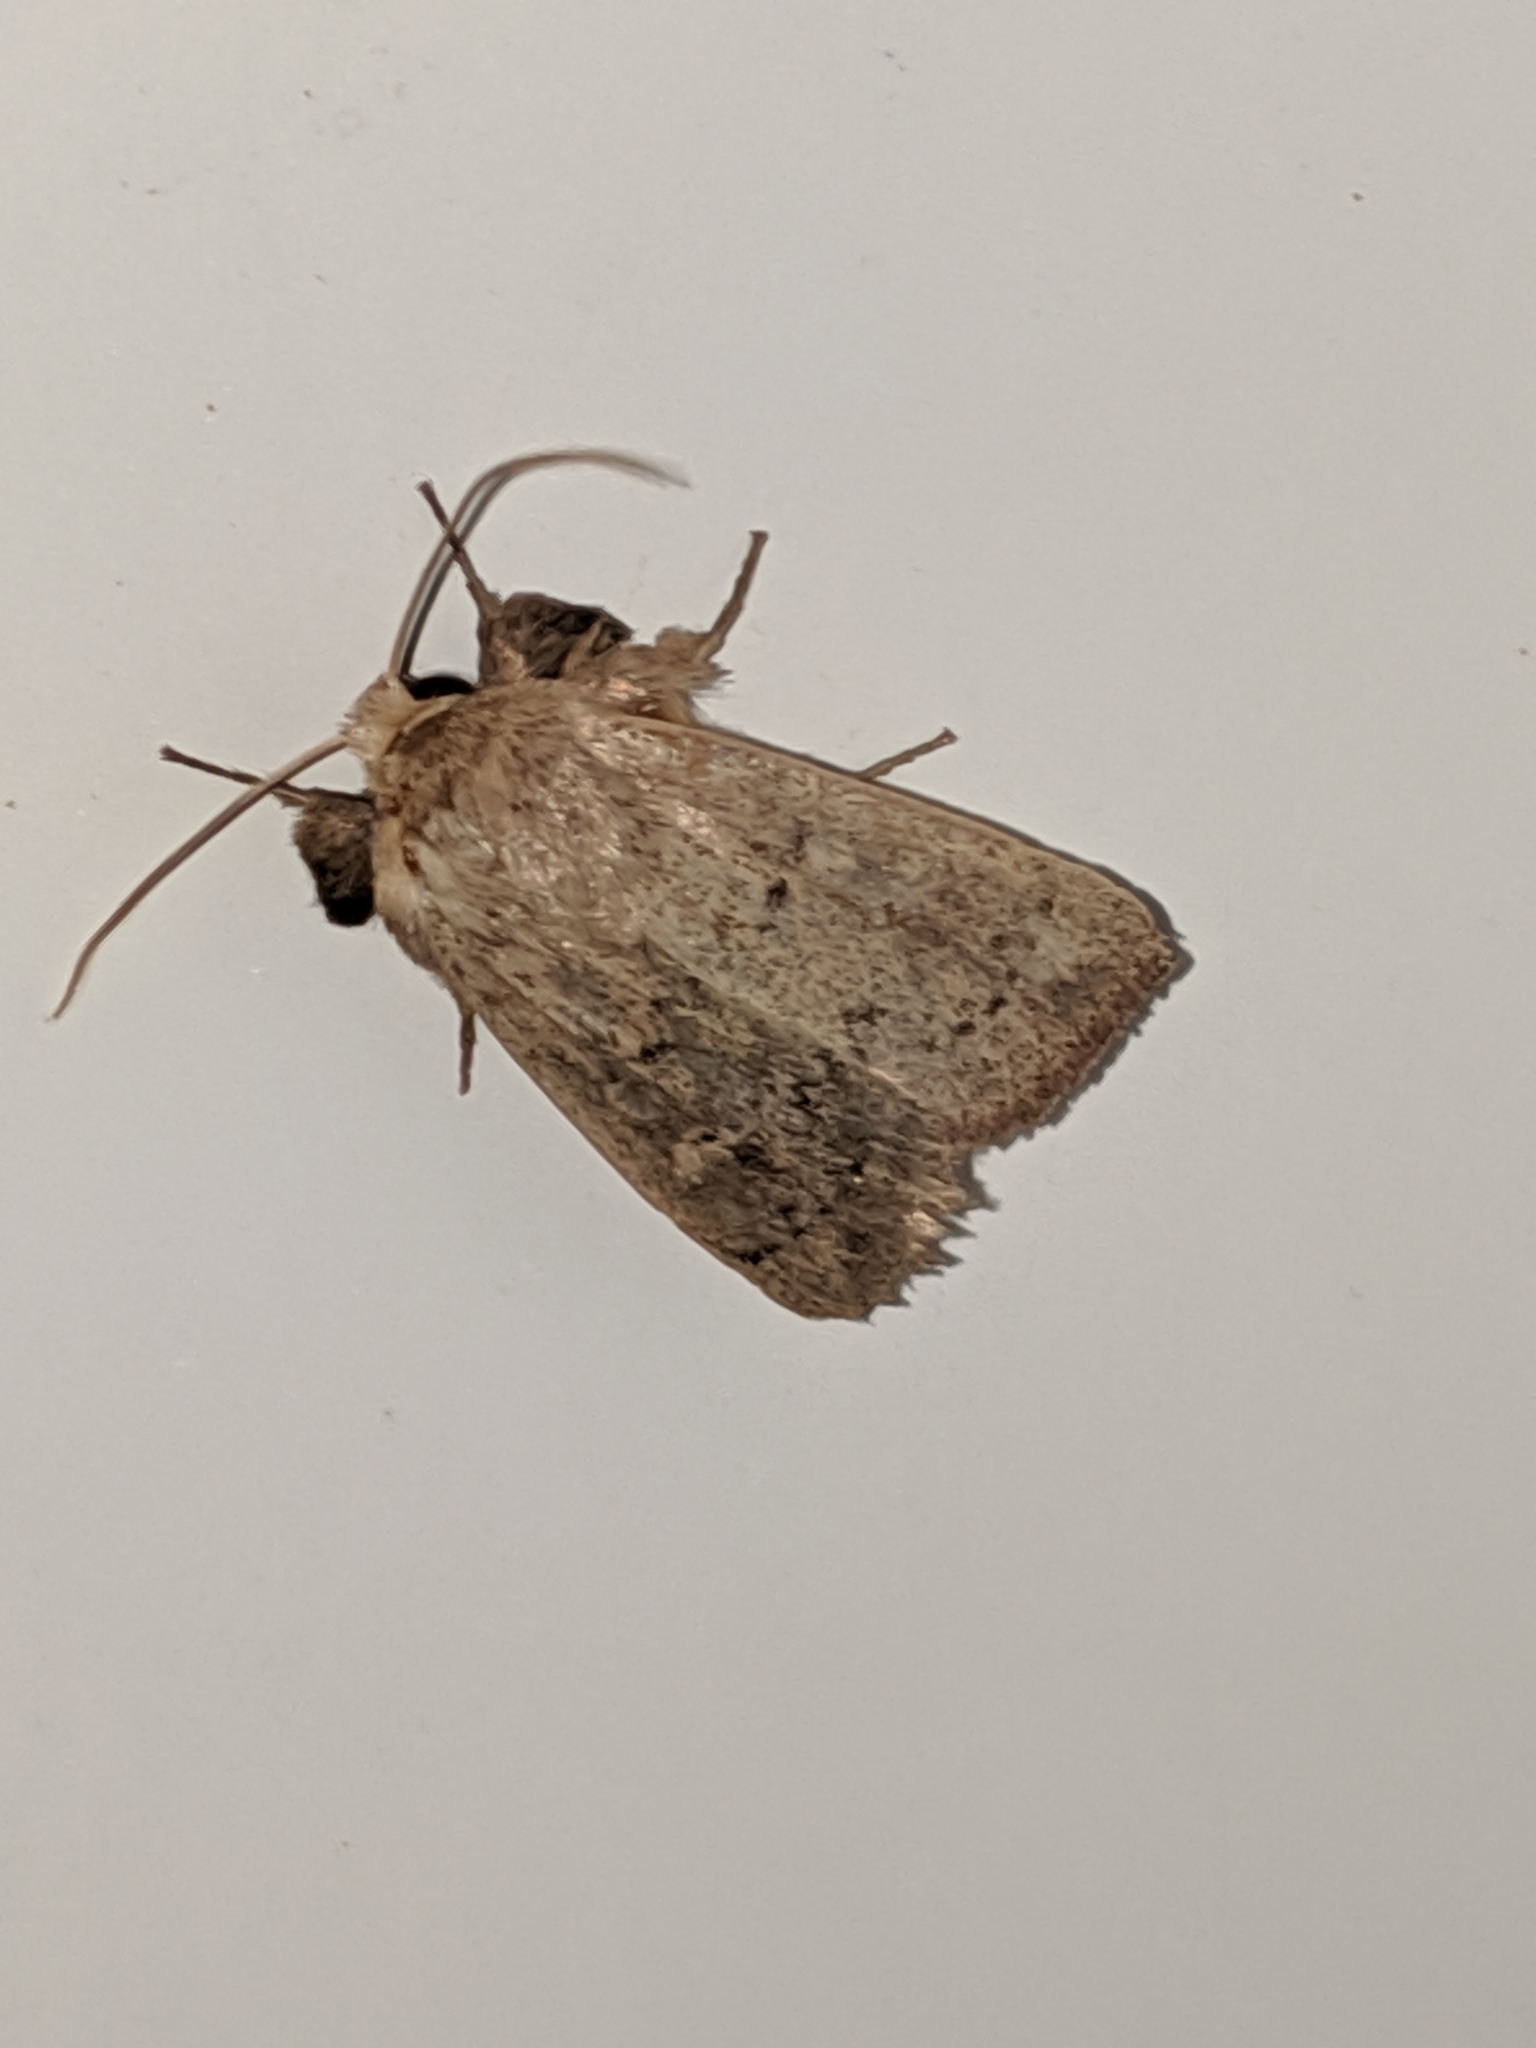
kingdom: Animalia
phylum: Arthropoda
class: Insecta
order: Lepidoptera
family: Noctuidae
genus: Leucania
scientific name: Leucania ursula
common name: Ursula wainscot
